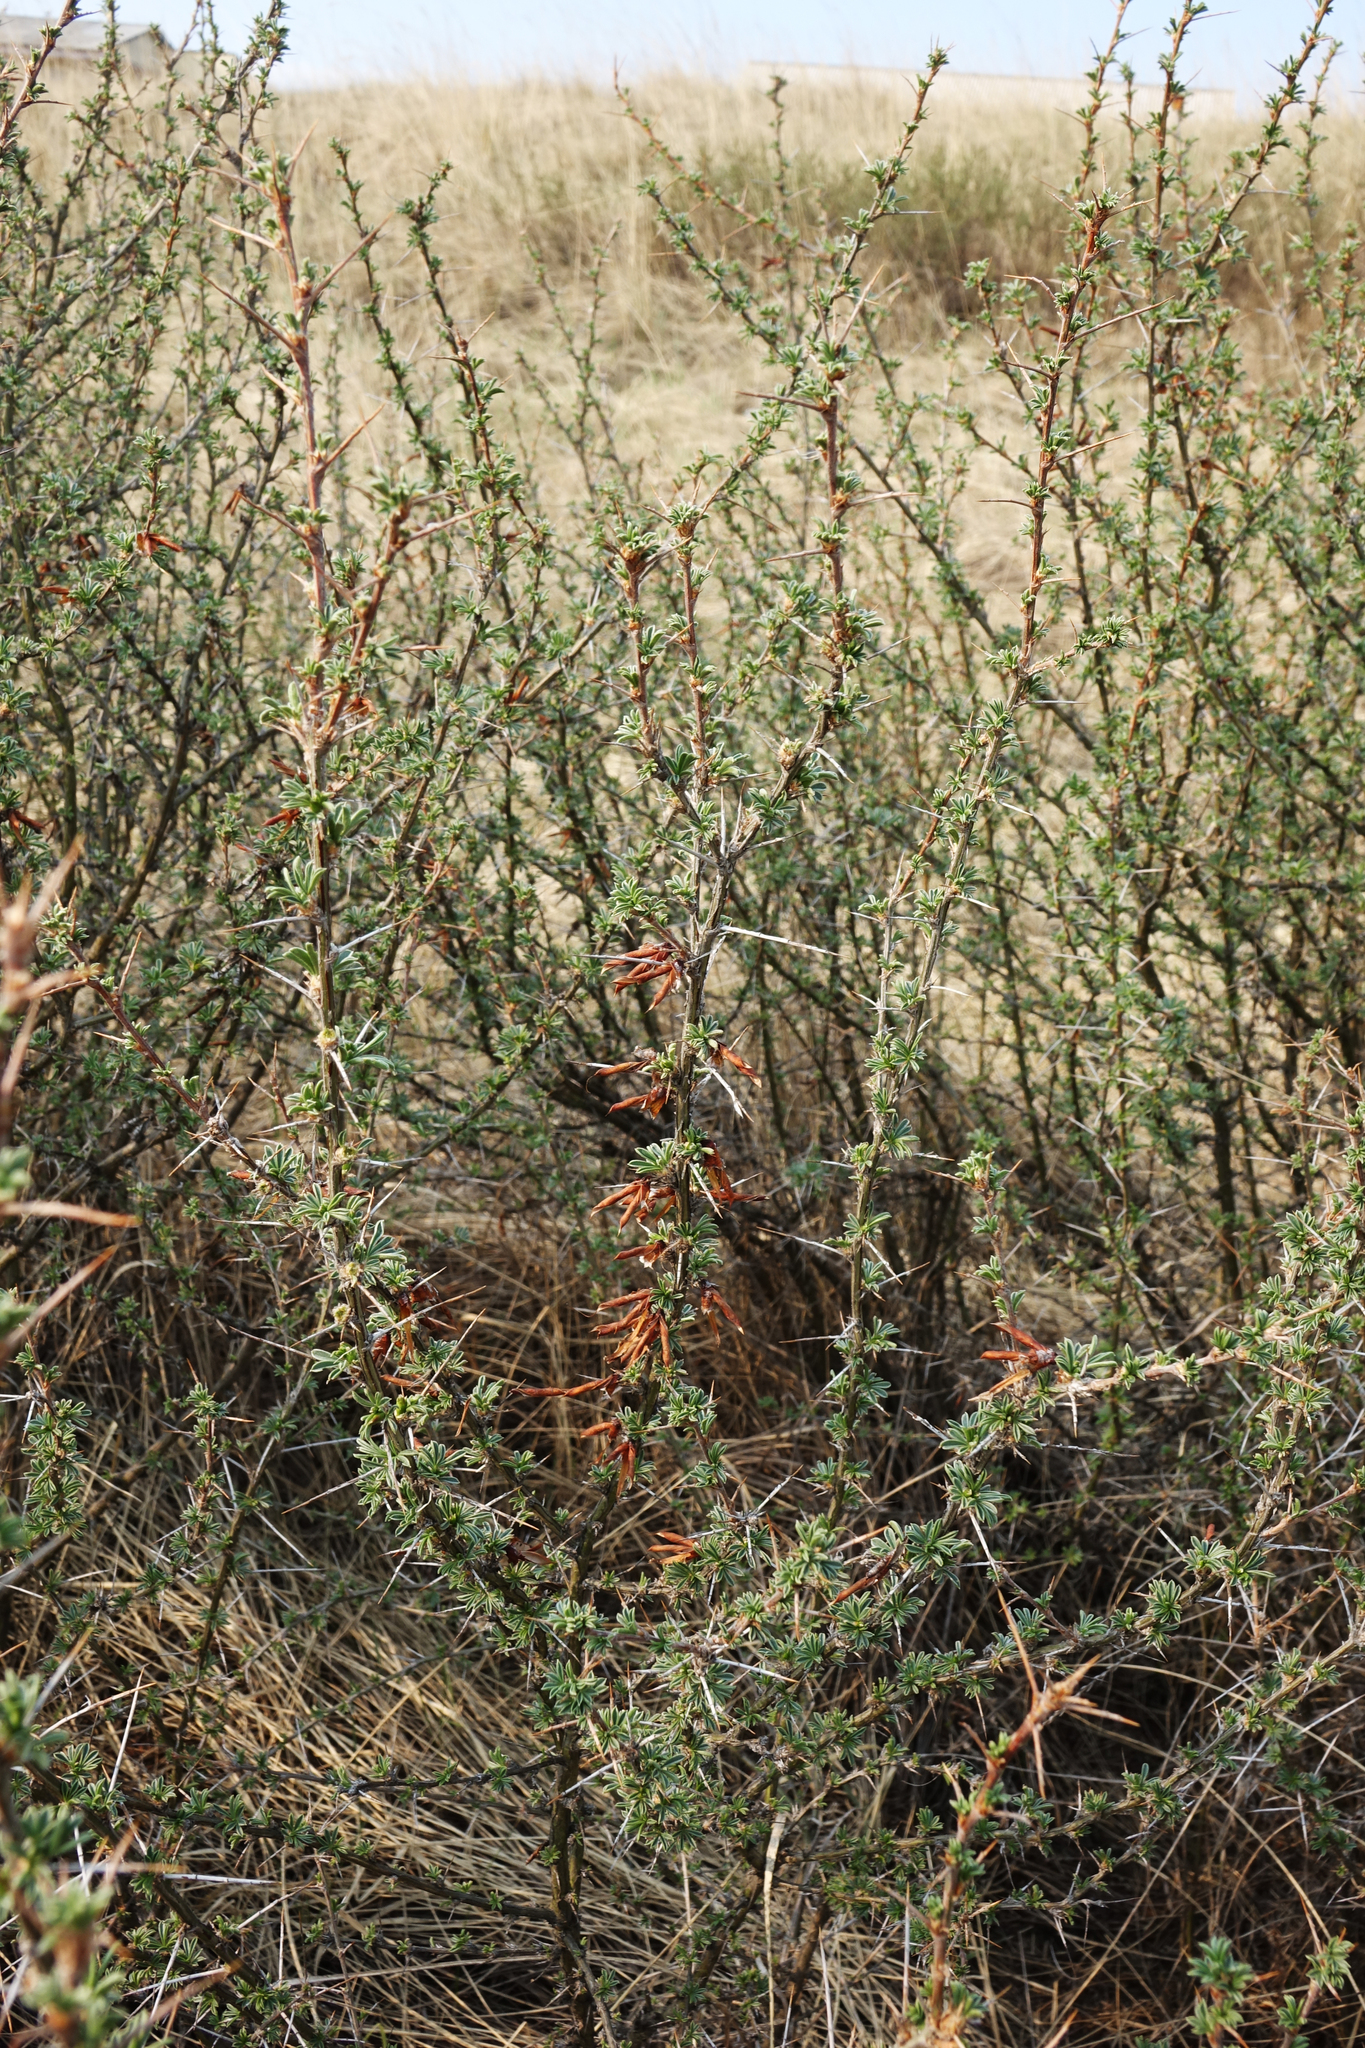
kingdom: Plantae
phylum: Tracheophyta
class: Magnoliopsida
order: Fabales
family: Fabaceae
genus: Caragana
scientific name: Caragana spinosa
